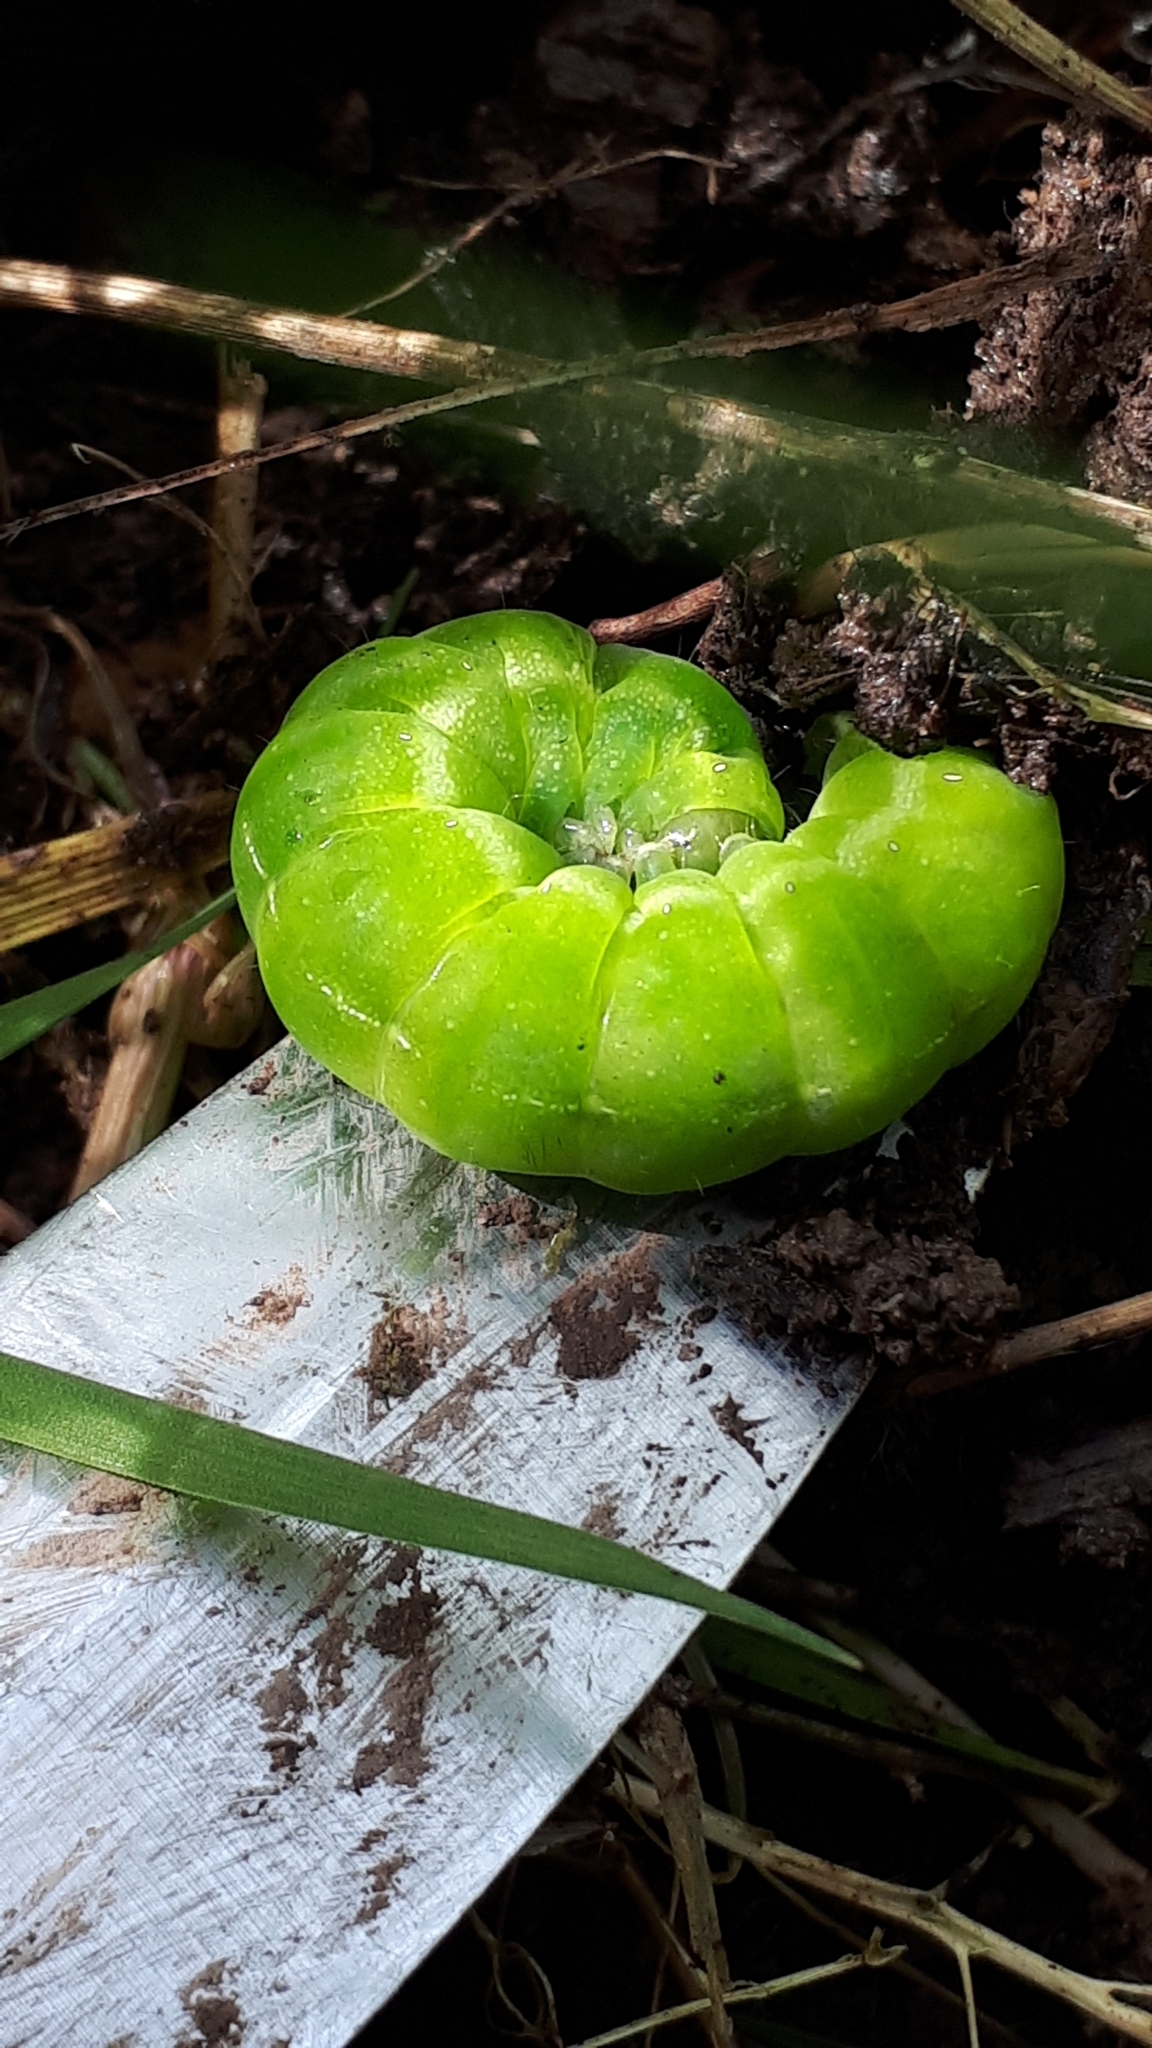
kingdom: Animalia
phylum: Arthropoda
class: Insecta
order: Lepidoptera
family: Noctuidae
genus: Phlogophora
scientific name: Phlogophora meticulosa
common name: Angle shades
